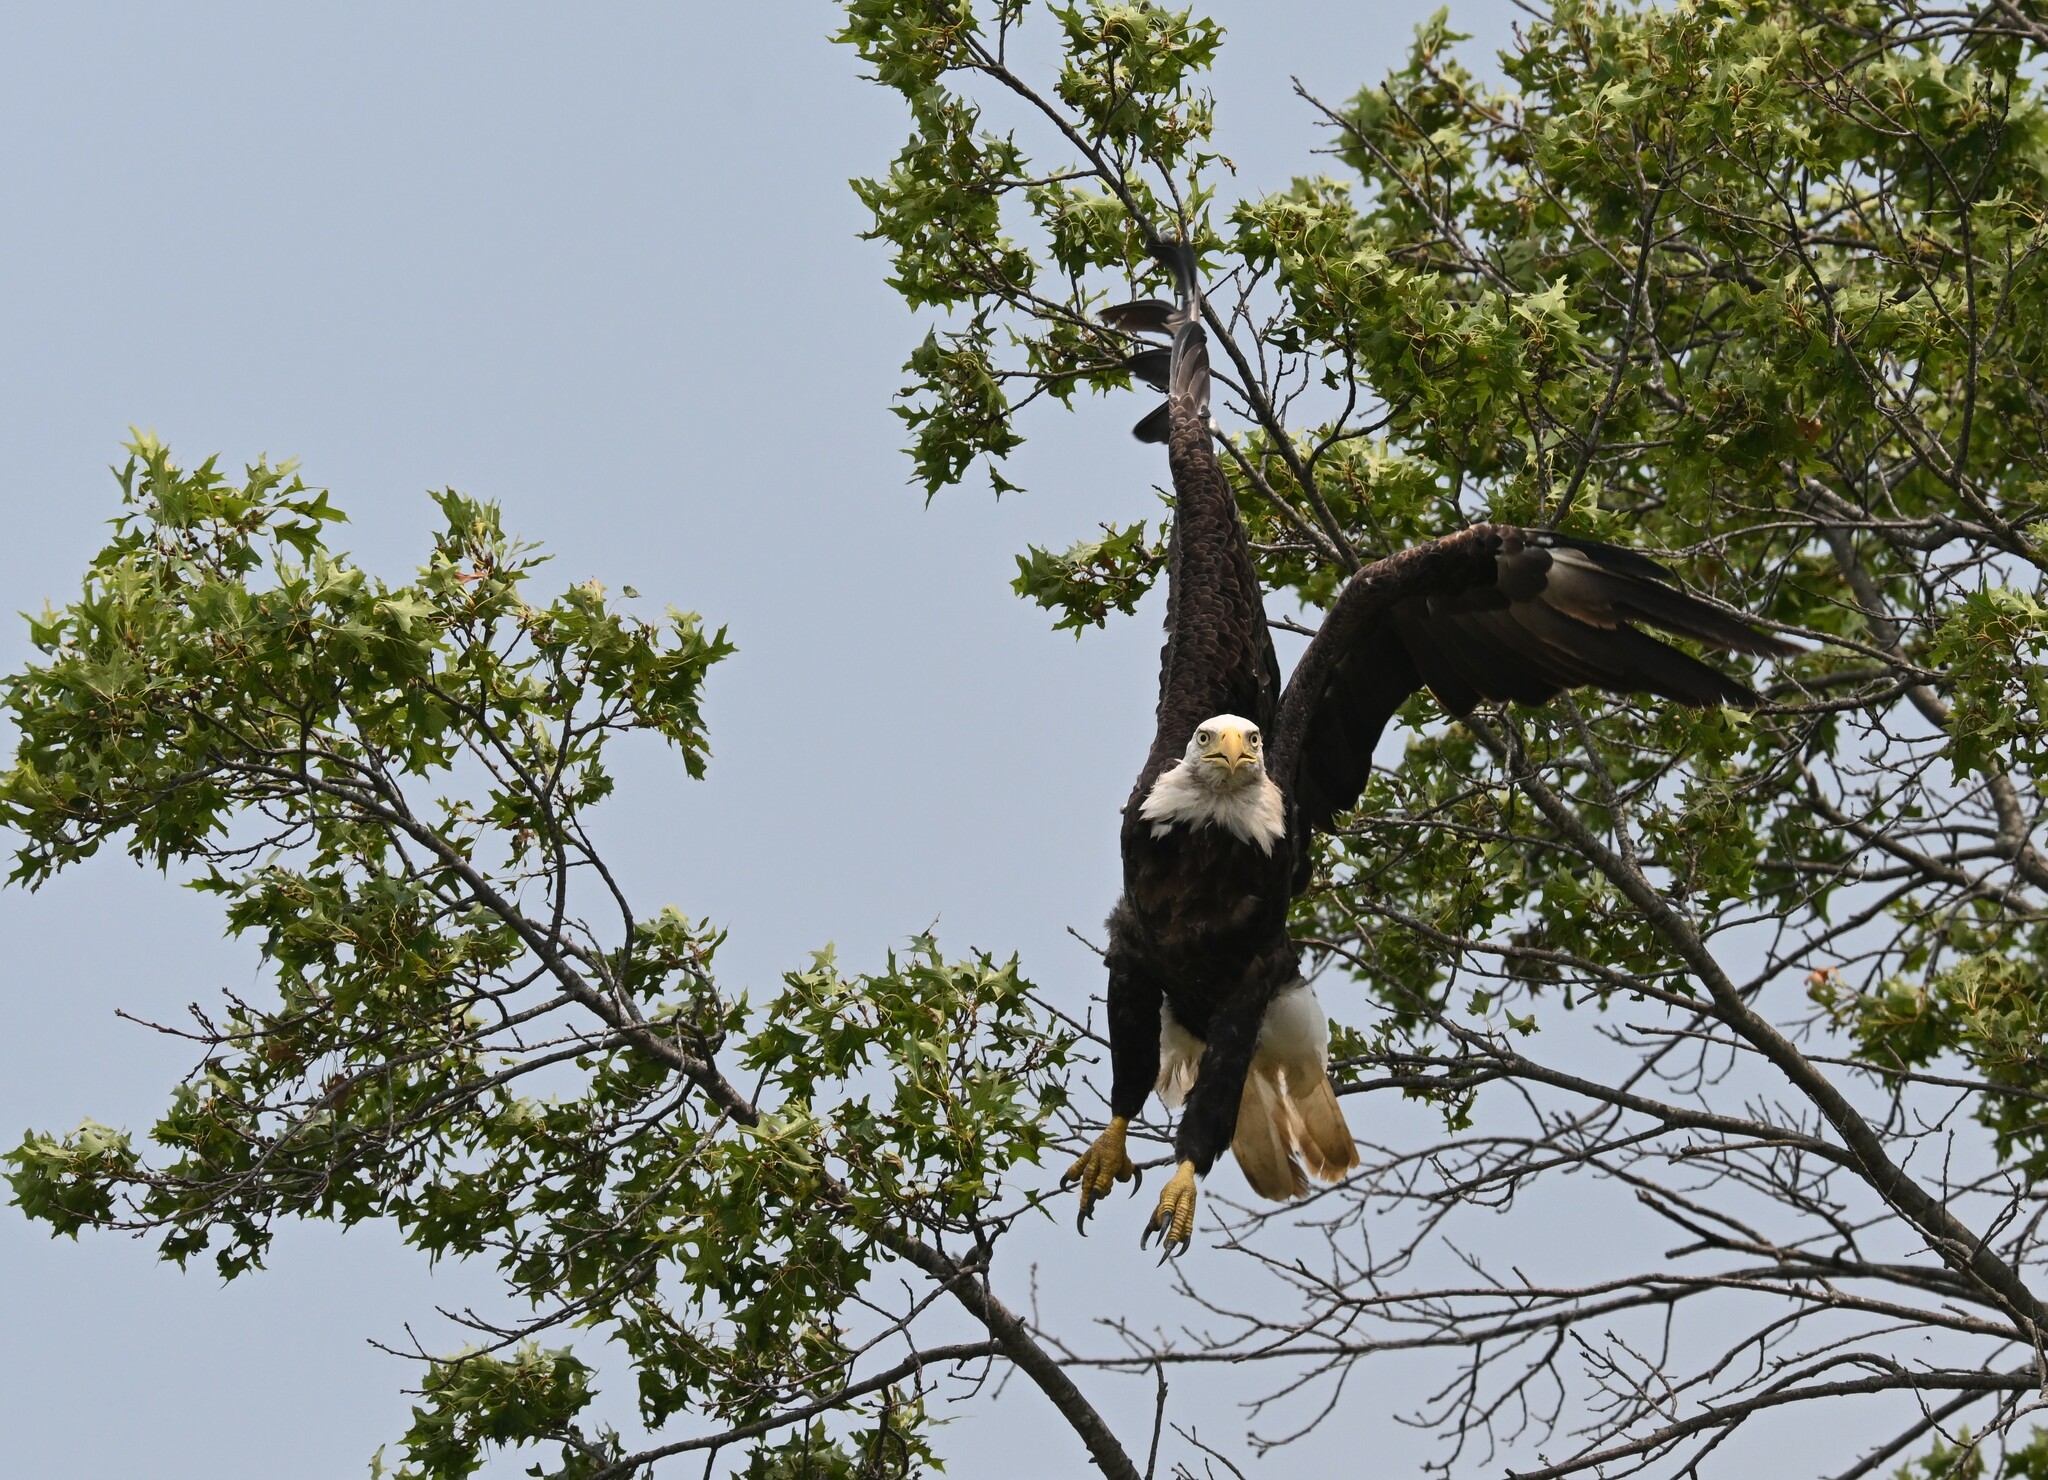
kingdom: Animalia
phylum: Chordata
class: Aves
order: Accipitriformes
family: Accipitridae
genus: Haliaeetus
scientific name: Haliaeetus leucocephalus
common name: Bald eagle
